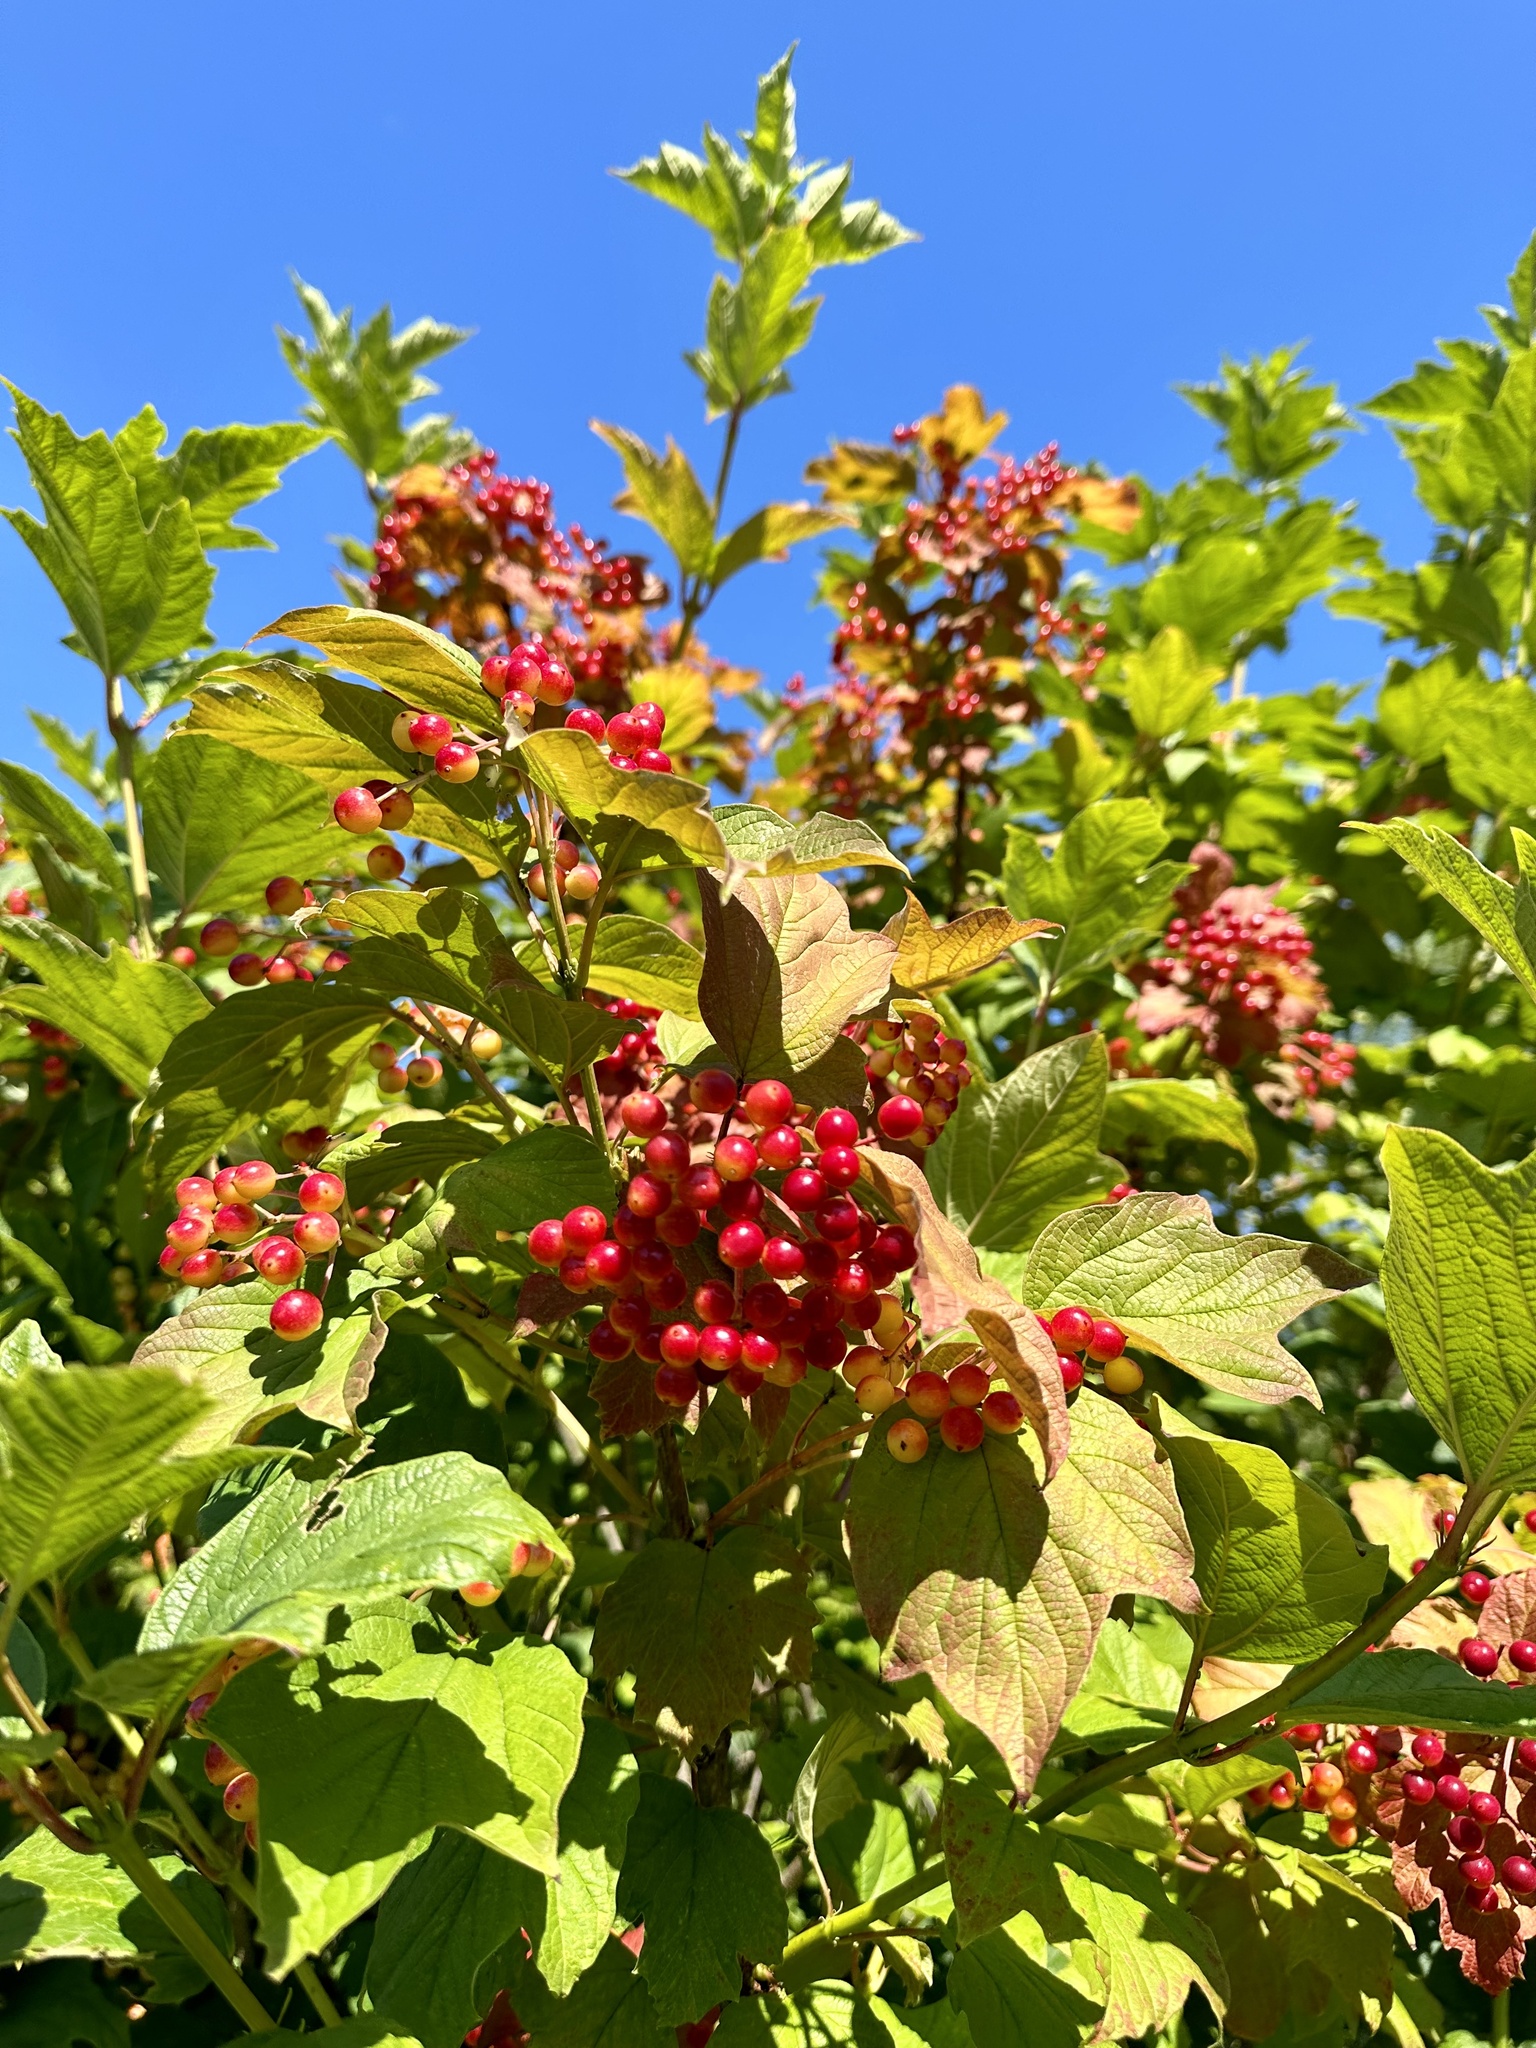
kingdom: Plantae
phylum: Tracheophyta
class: Magnoliopsida
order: Dipsacales
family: Viburnaceae
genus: Viburnum
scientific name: Viburnum opulus
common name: Guelder-rose
